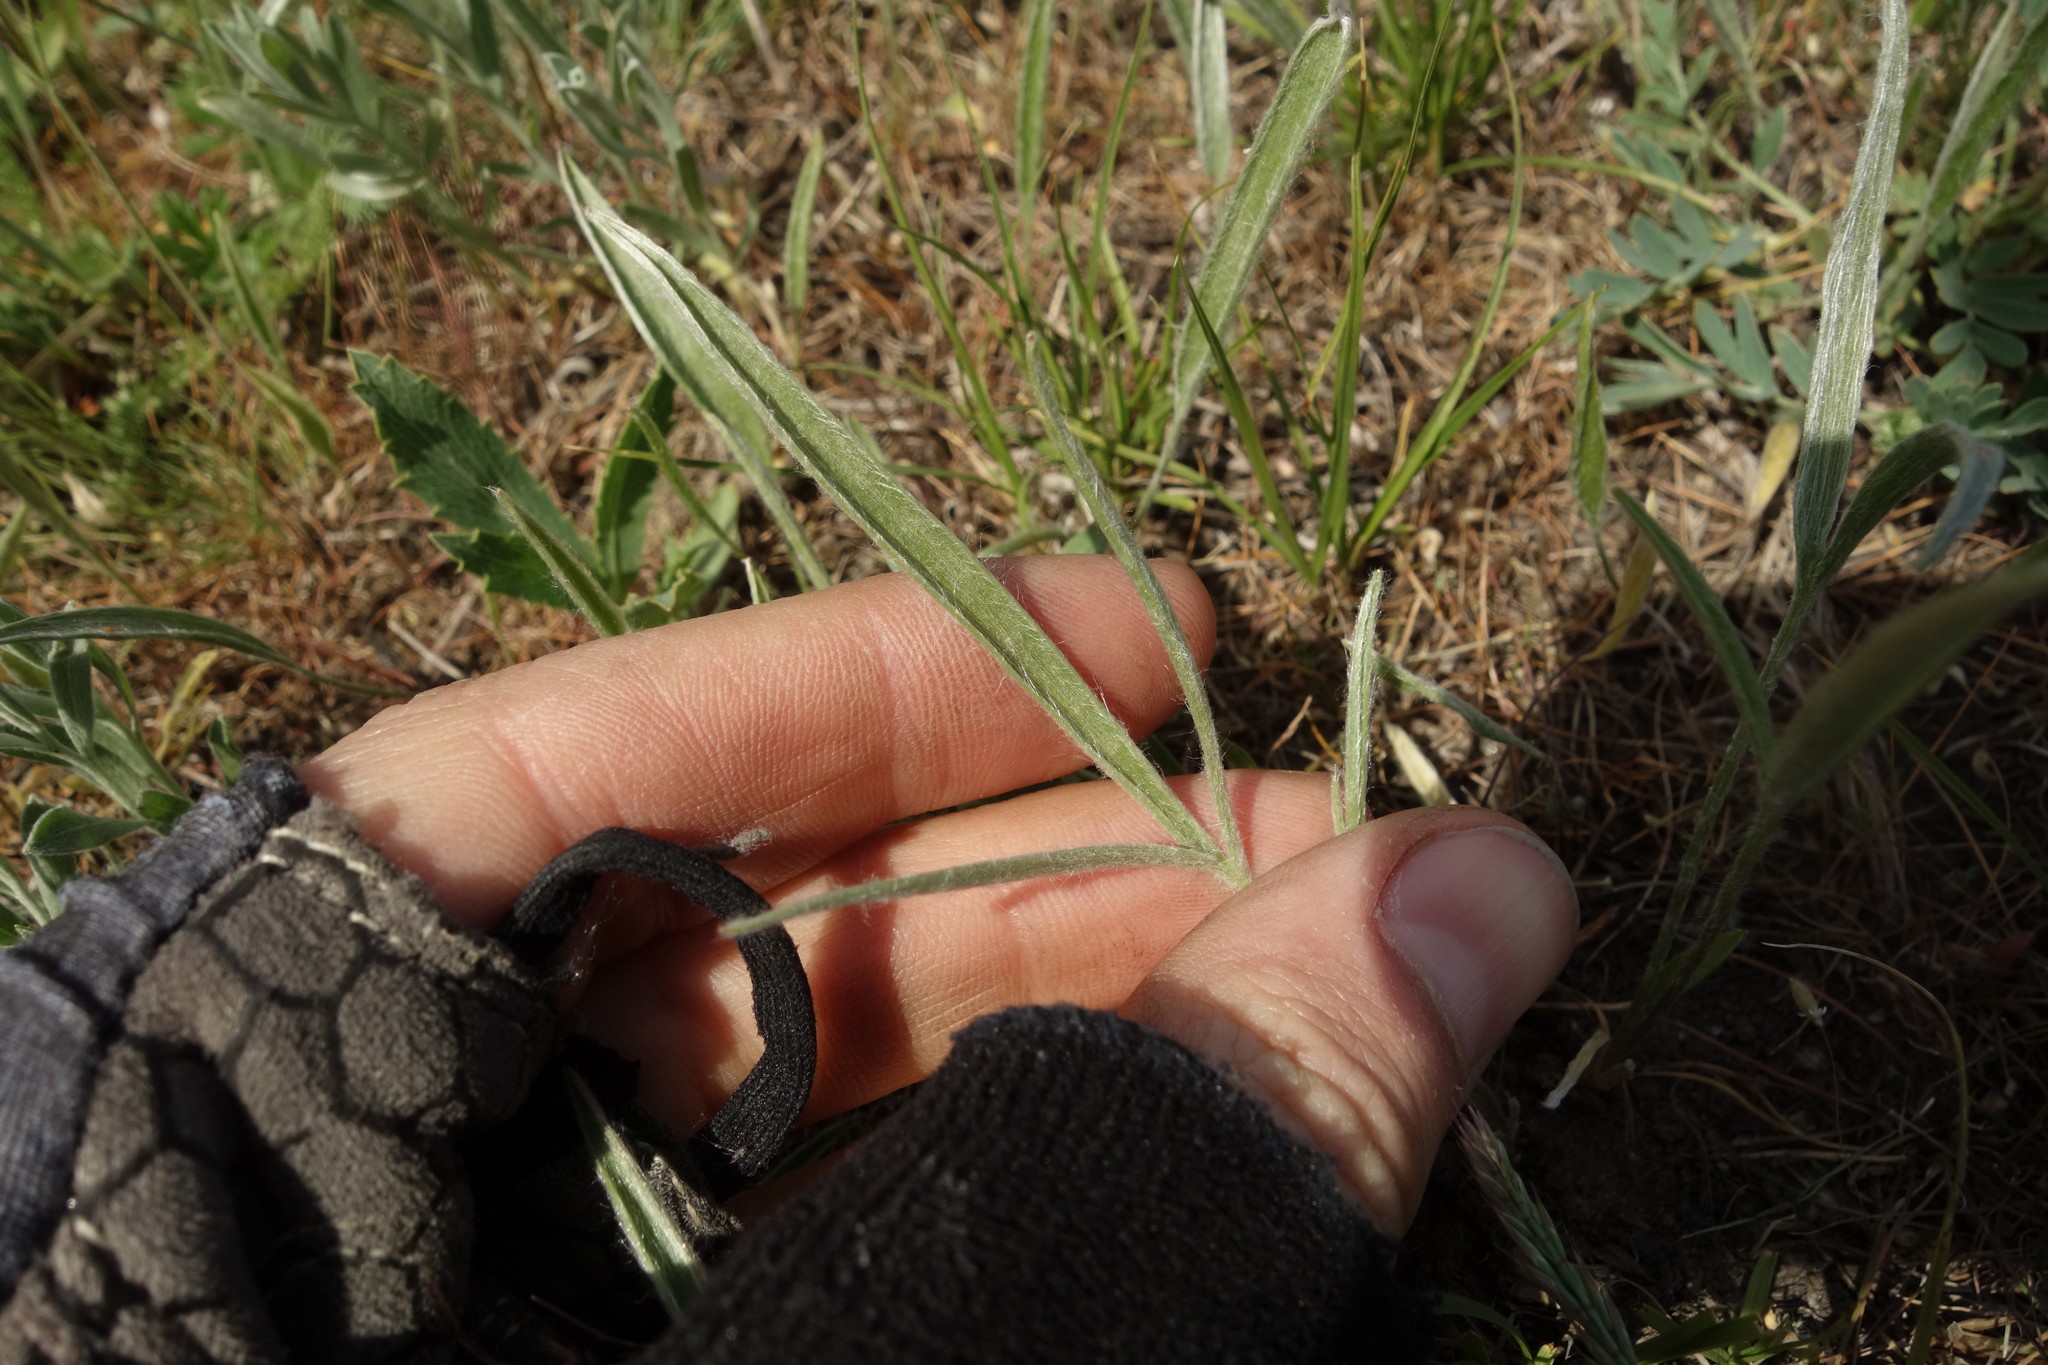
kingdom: Plantae
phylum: Tracheophyta
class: Magnoliopsida
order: Ranunculales
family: Ranunculaceae
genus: Ranunculus
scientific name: Ranunculus illyricus
